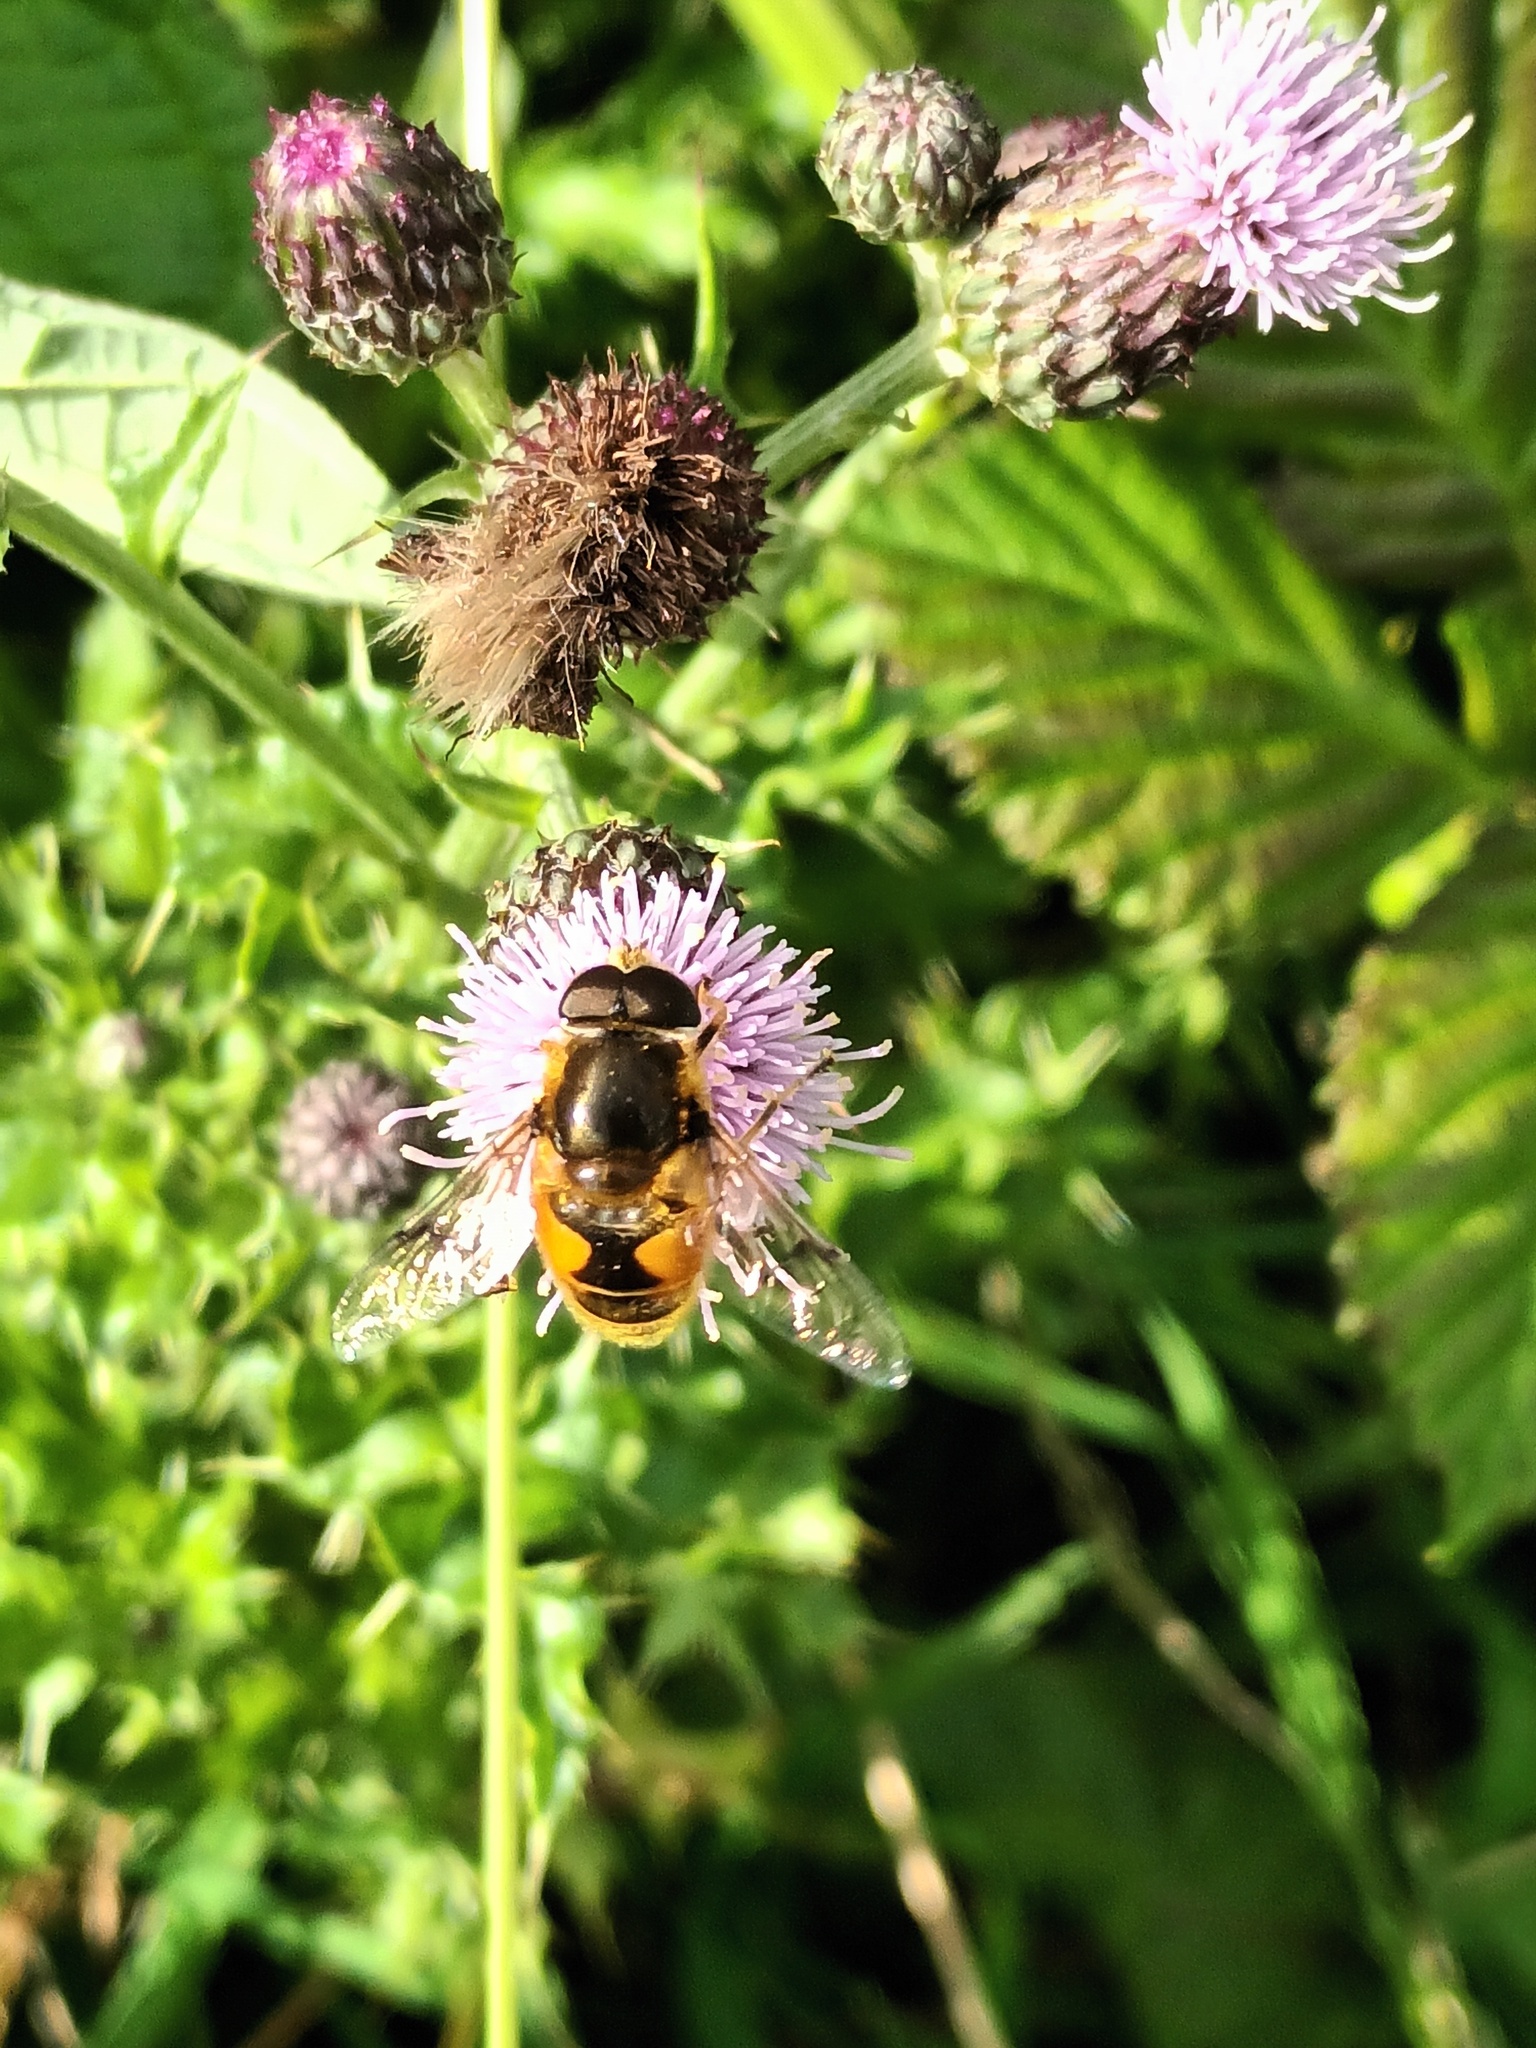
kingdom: Animalia
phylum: Arthropoda
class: Insecta
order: Diptera
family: Syrphidae
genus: Cheilosia
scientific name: Cheilosia morio
